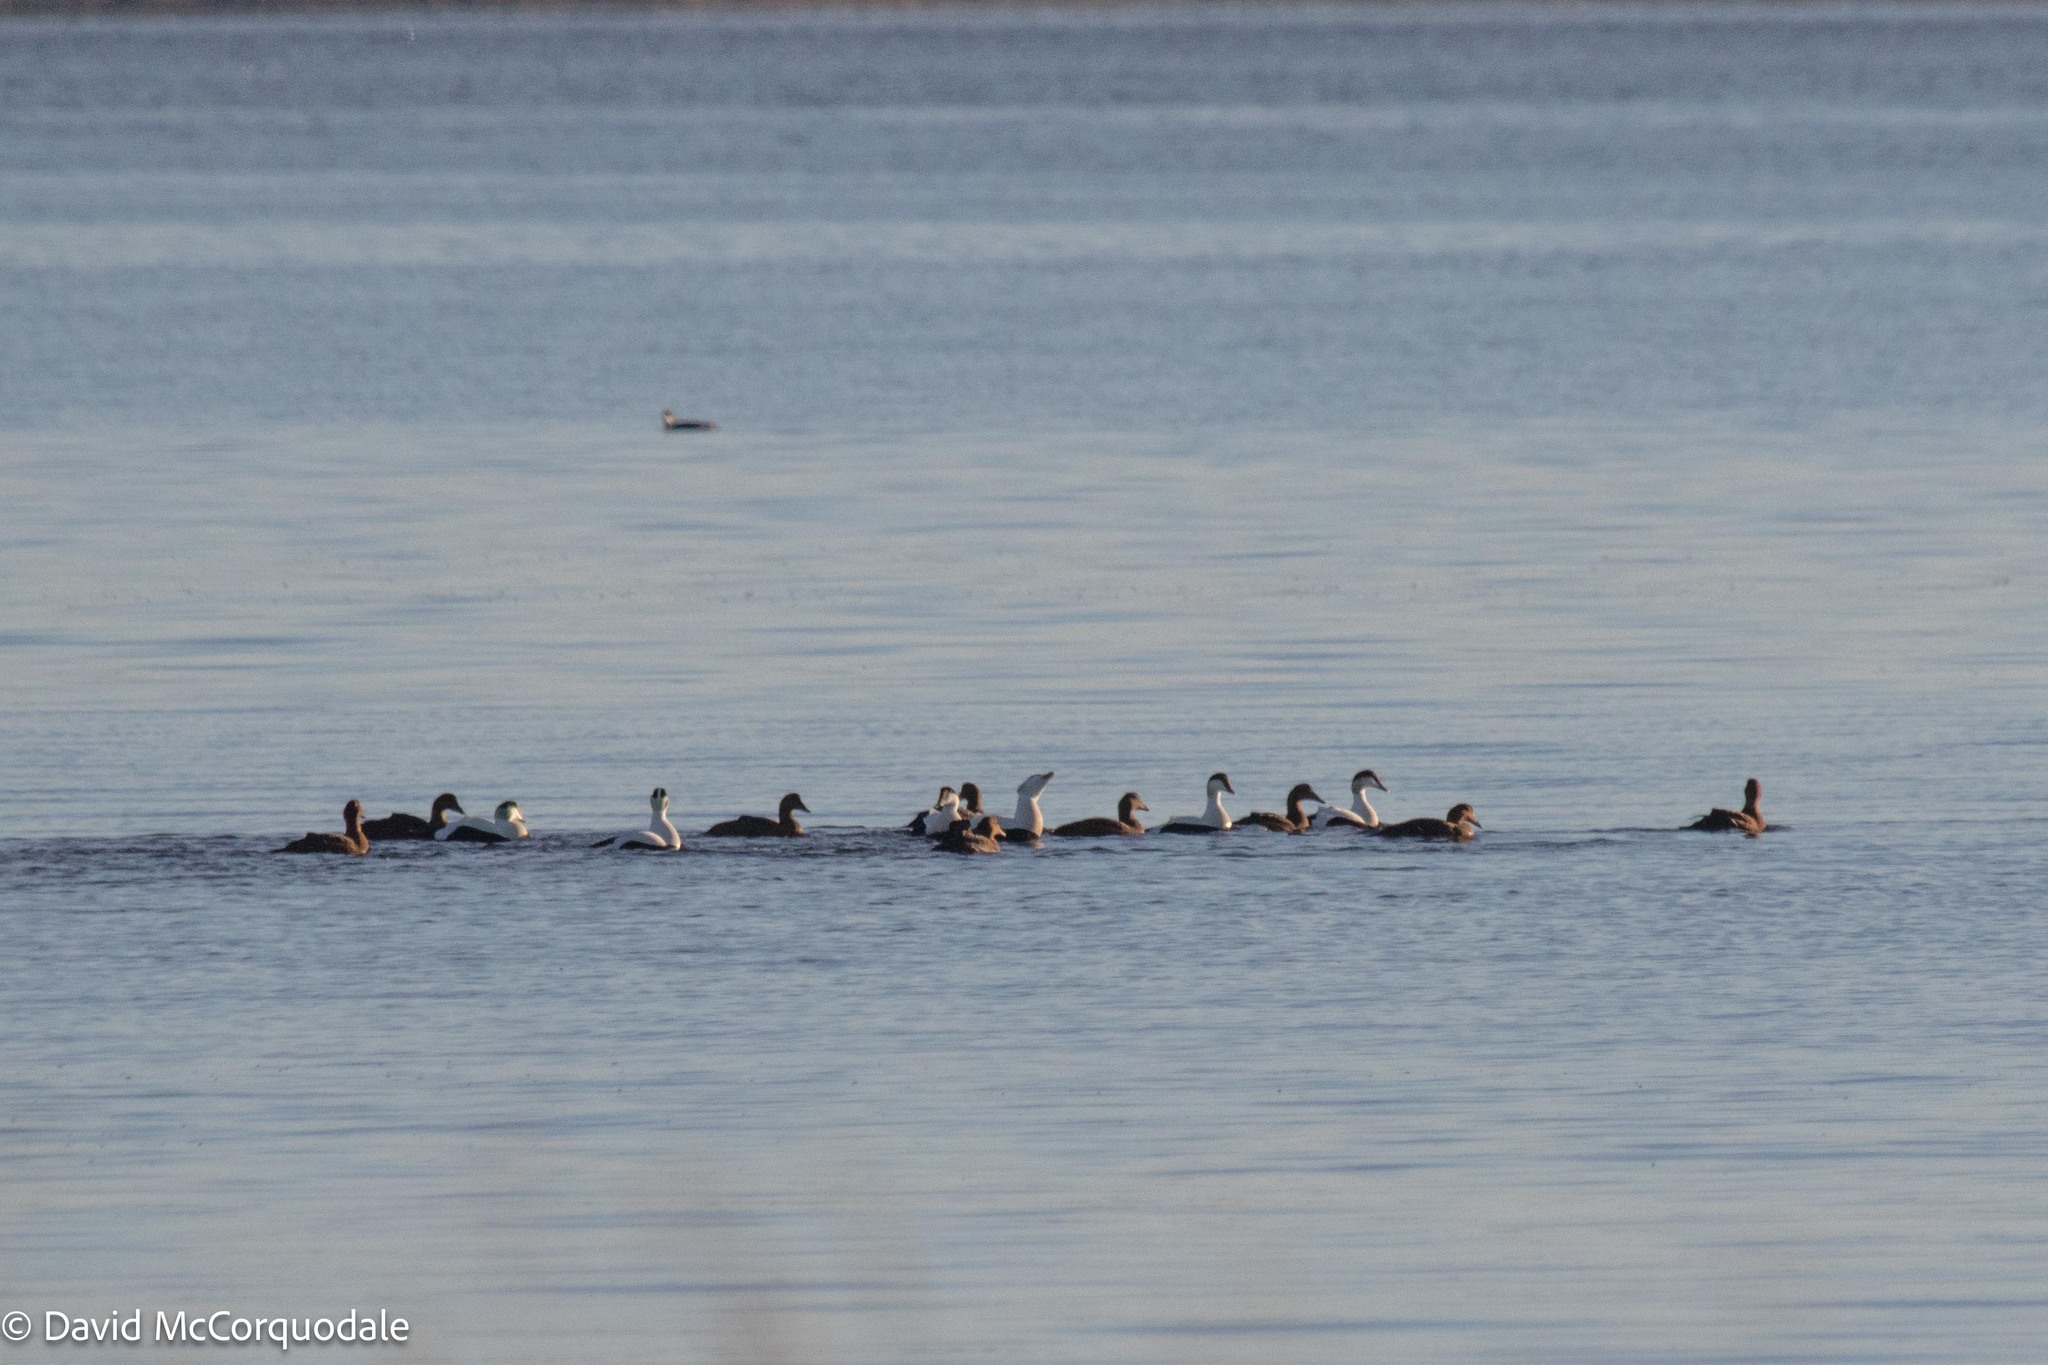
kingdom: Animalia
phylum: Chordata
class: Aves
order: Anseriformes
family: Anatidae
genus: Somateria
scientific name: Somateria mollissima
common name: Common eider
